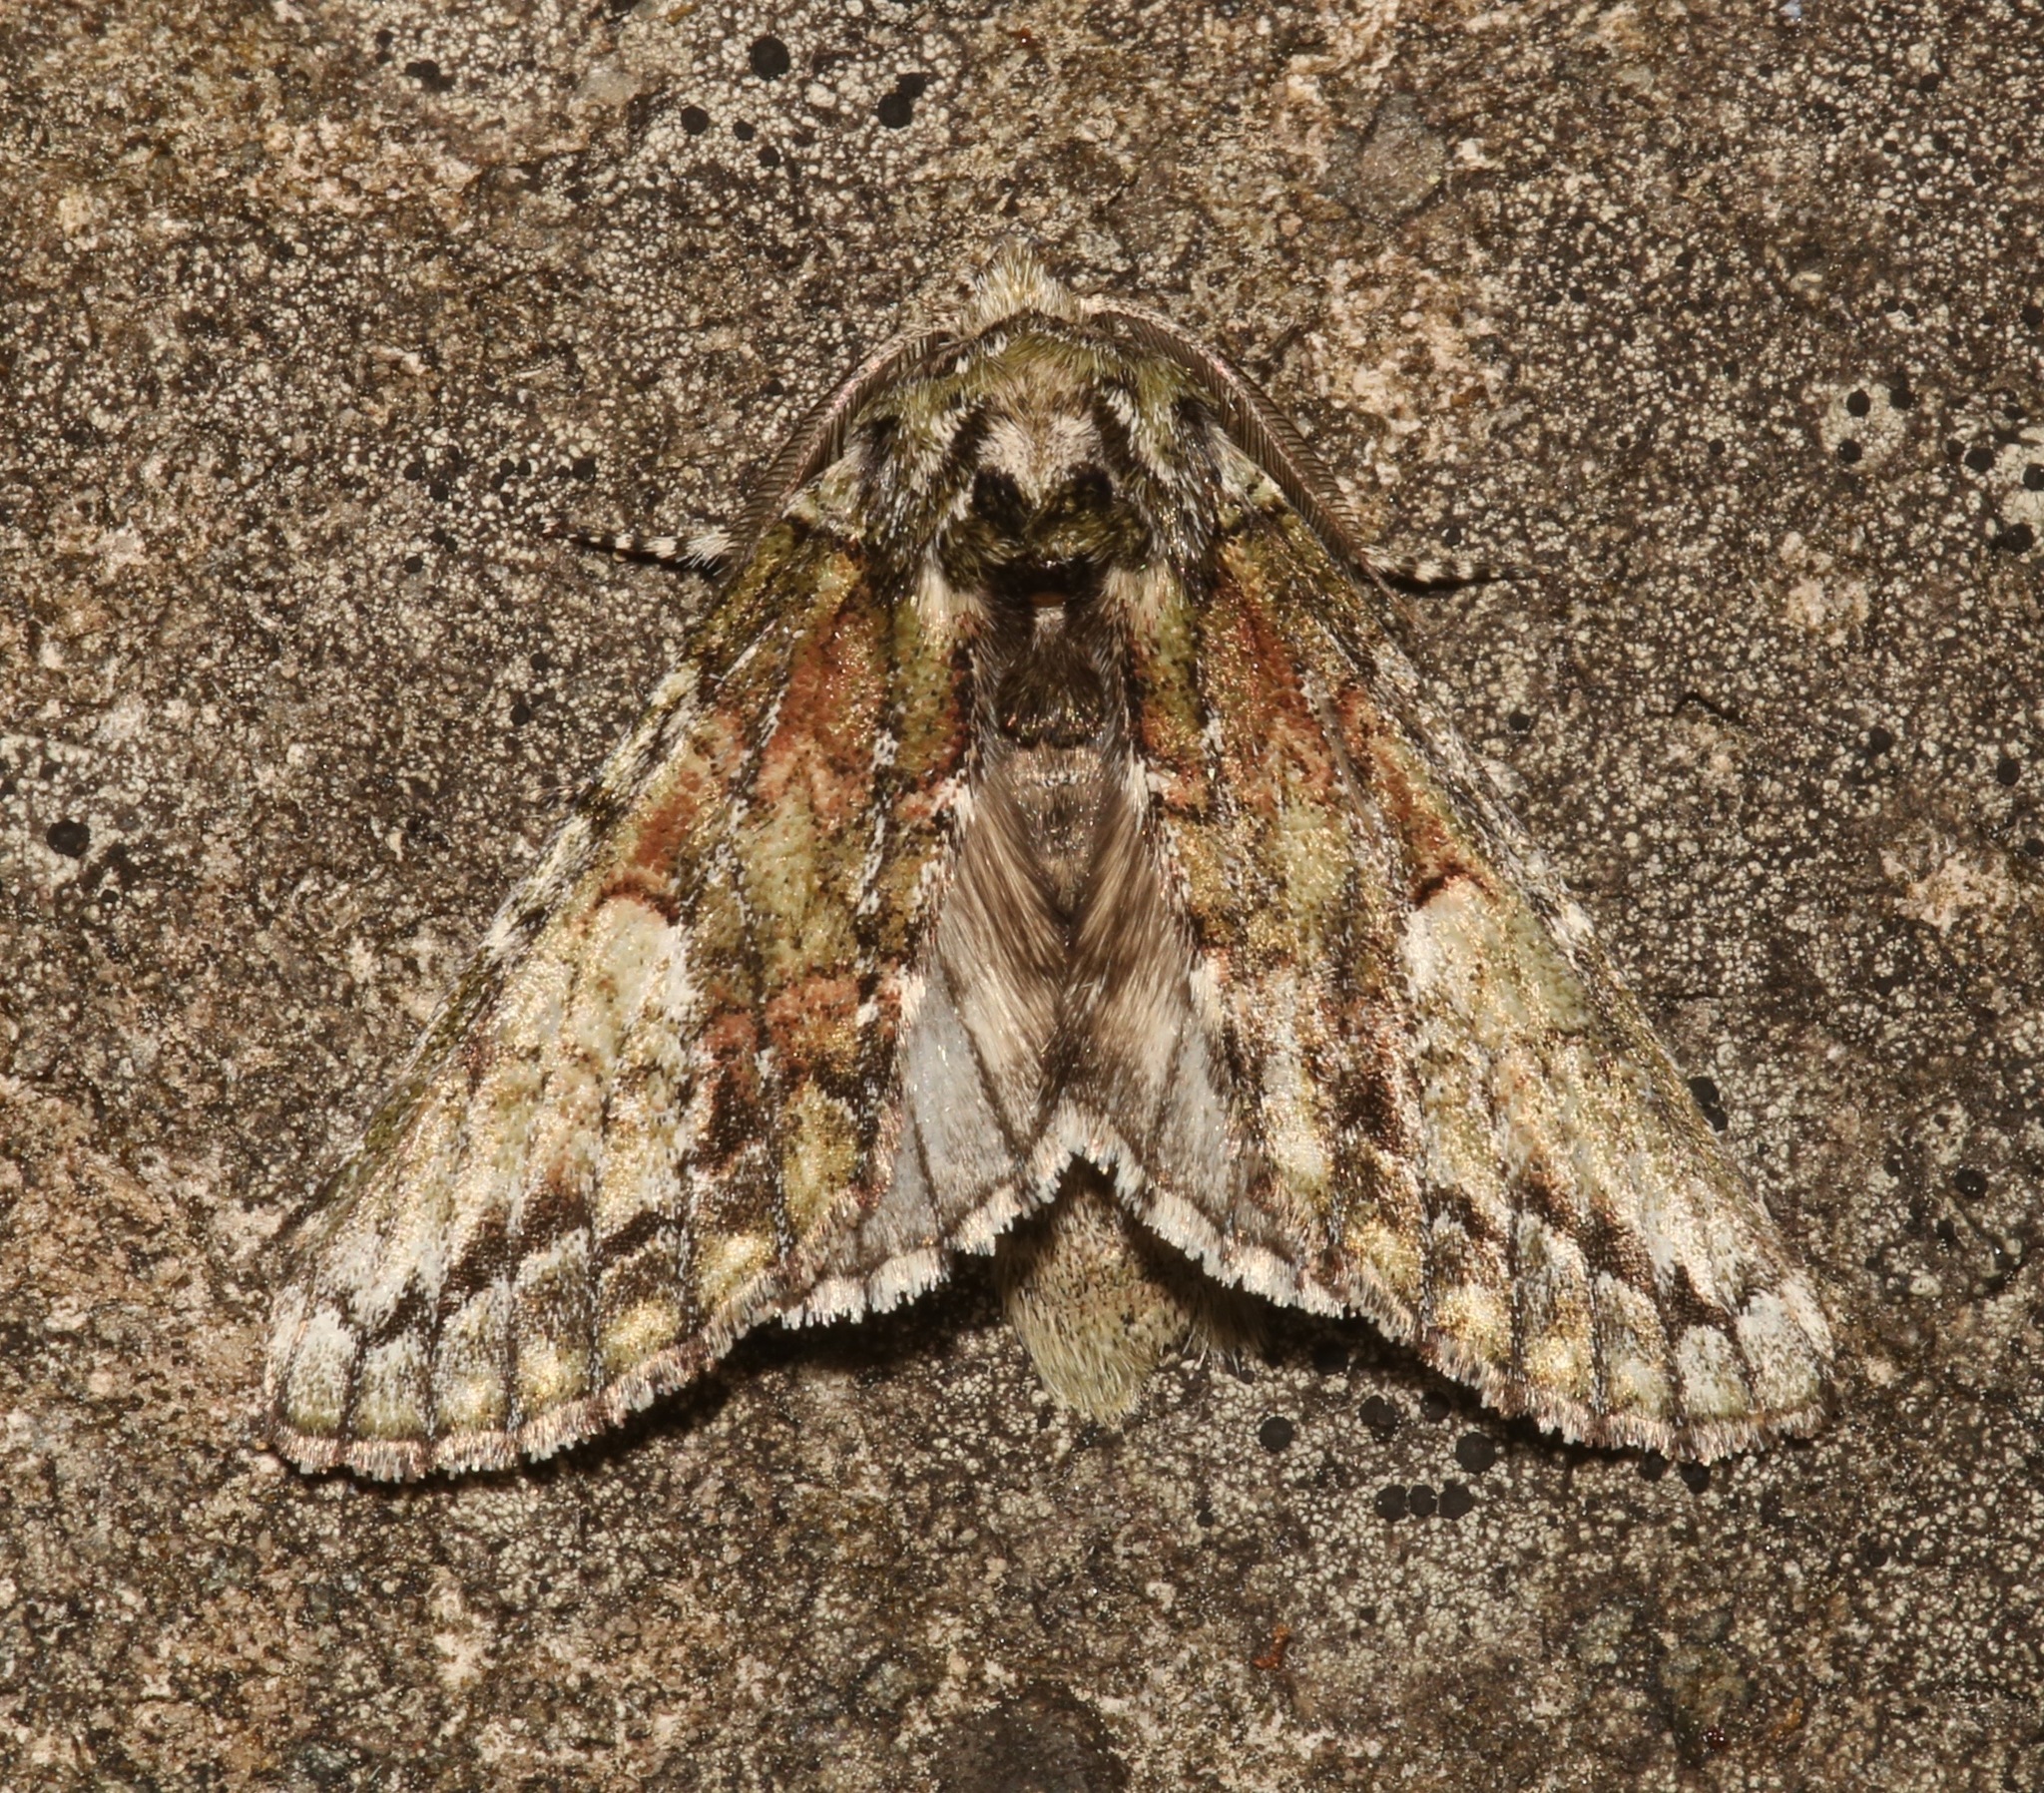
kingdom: Animalia
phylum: Arthropoda
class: Insecta
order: Lepidoptera
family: Notodontidae
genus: Heterocampa
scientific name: Heterocampa
